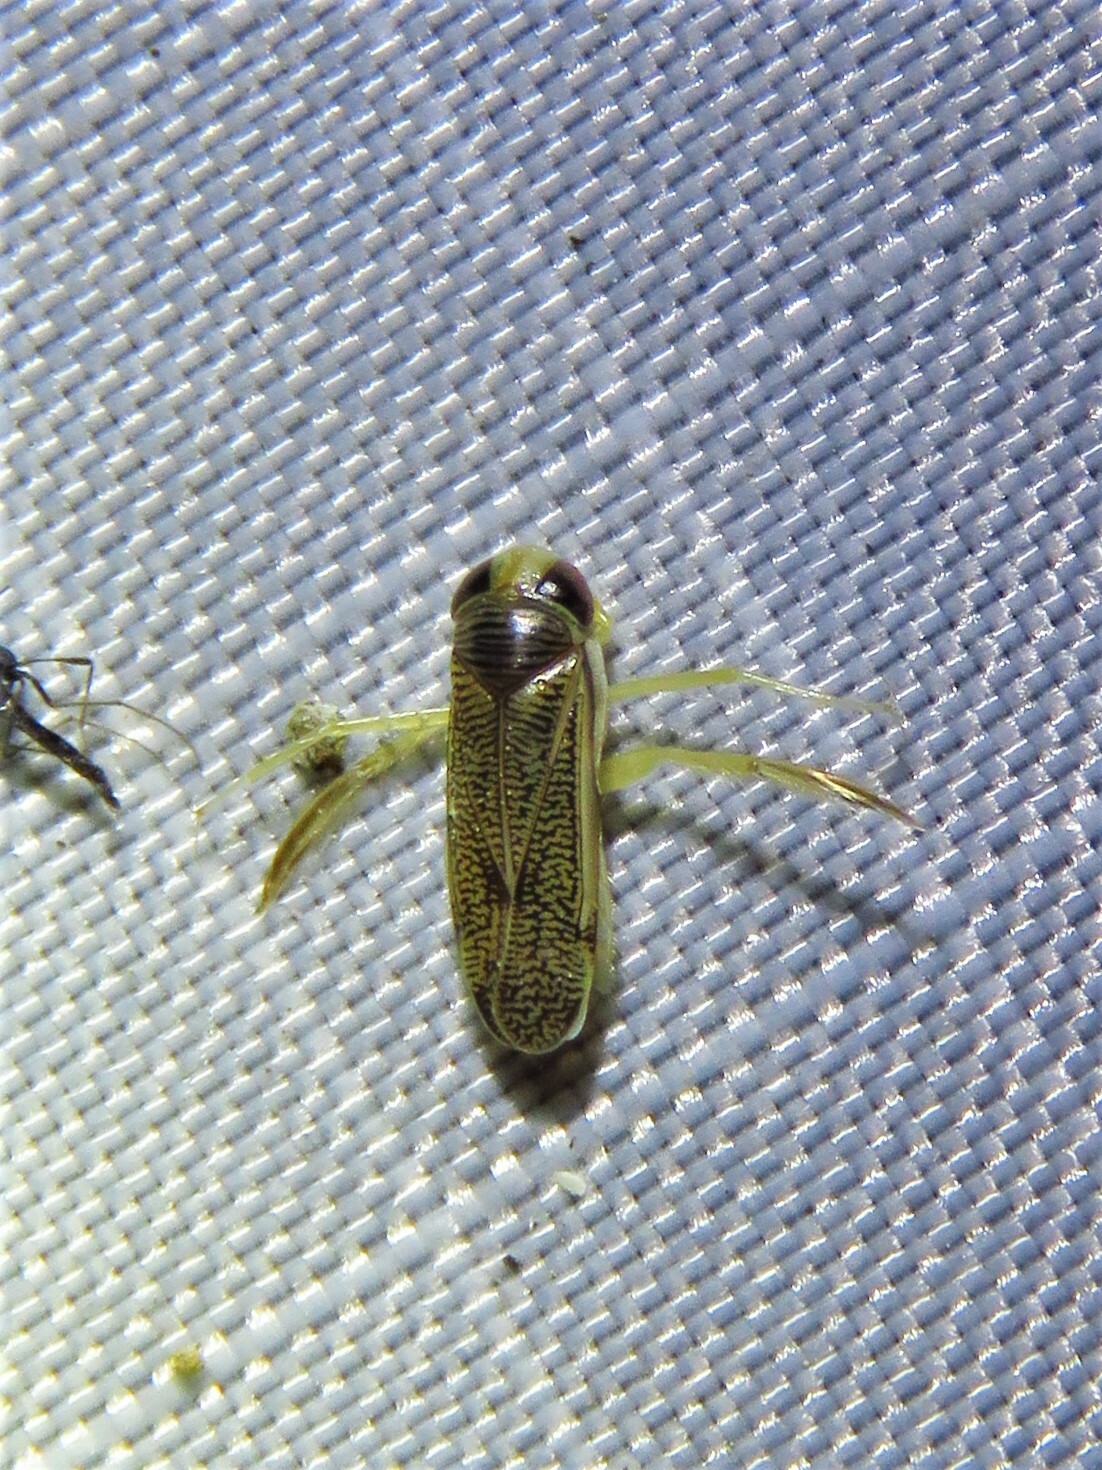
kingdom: Animalia
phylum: Arthropoda
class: Insecta
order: Hemiptera
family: Corixidae
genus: Trichocorixa
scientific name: Trichocorixa
